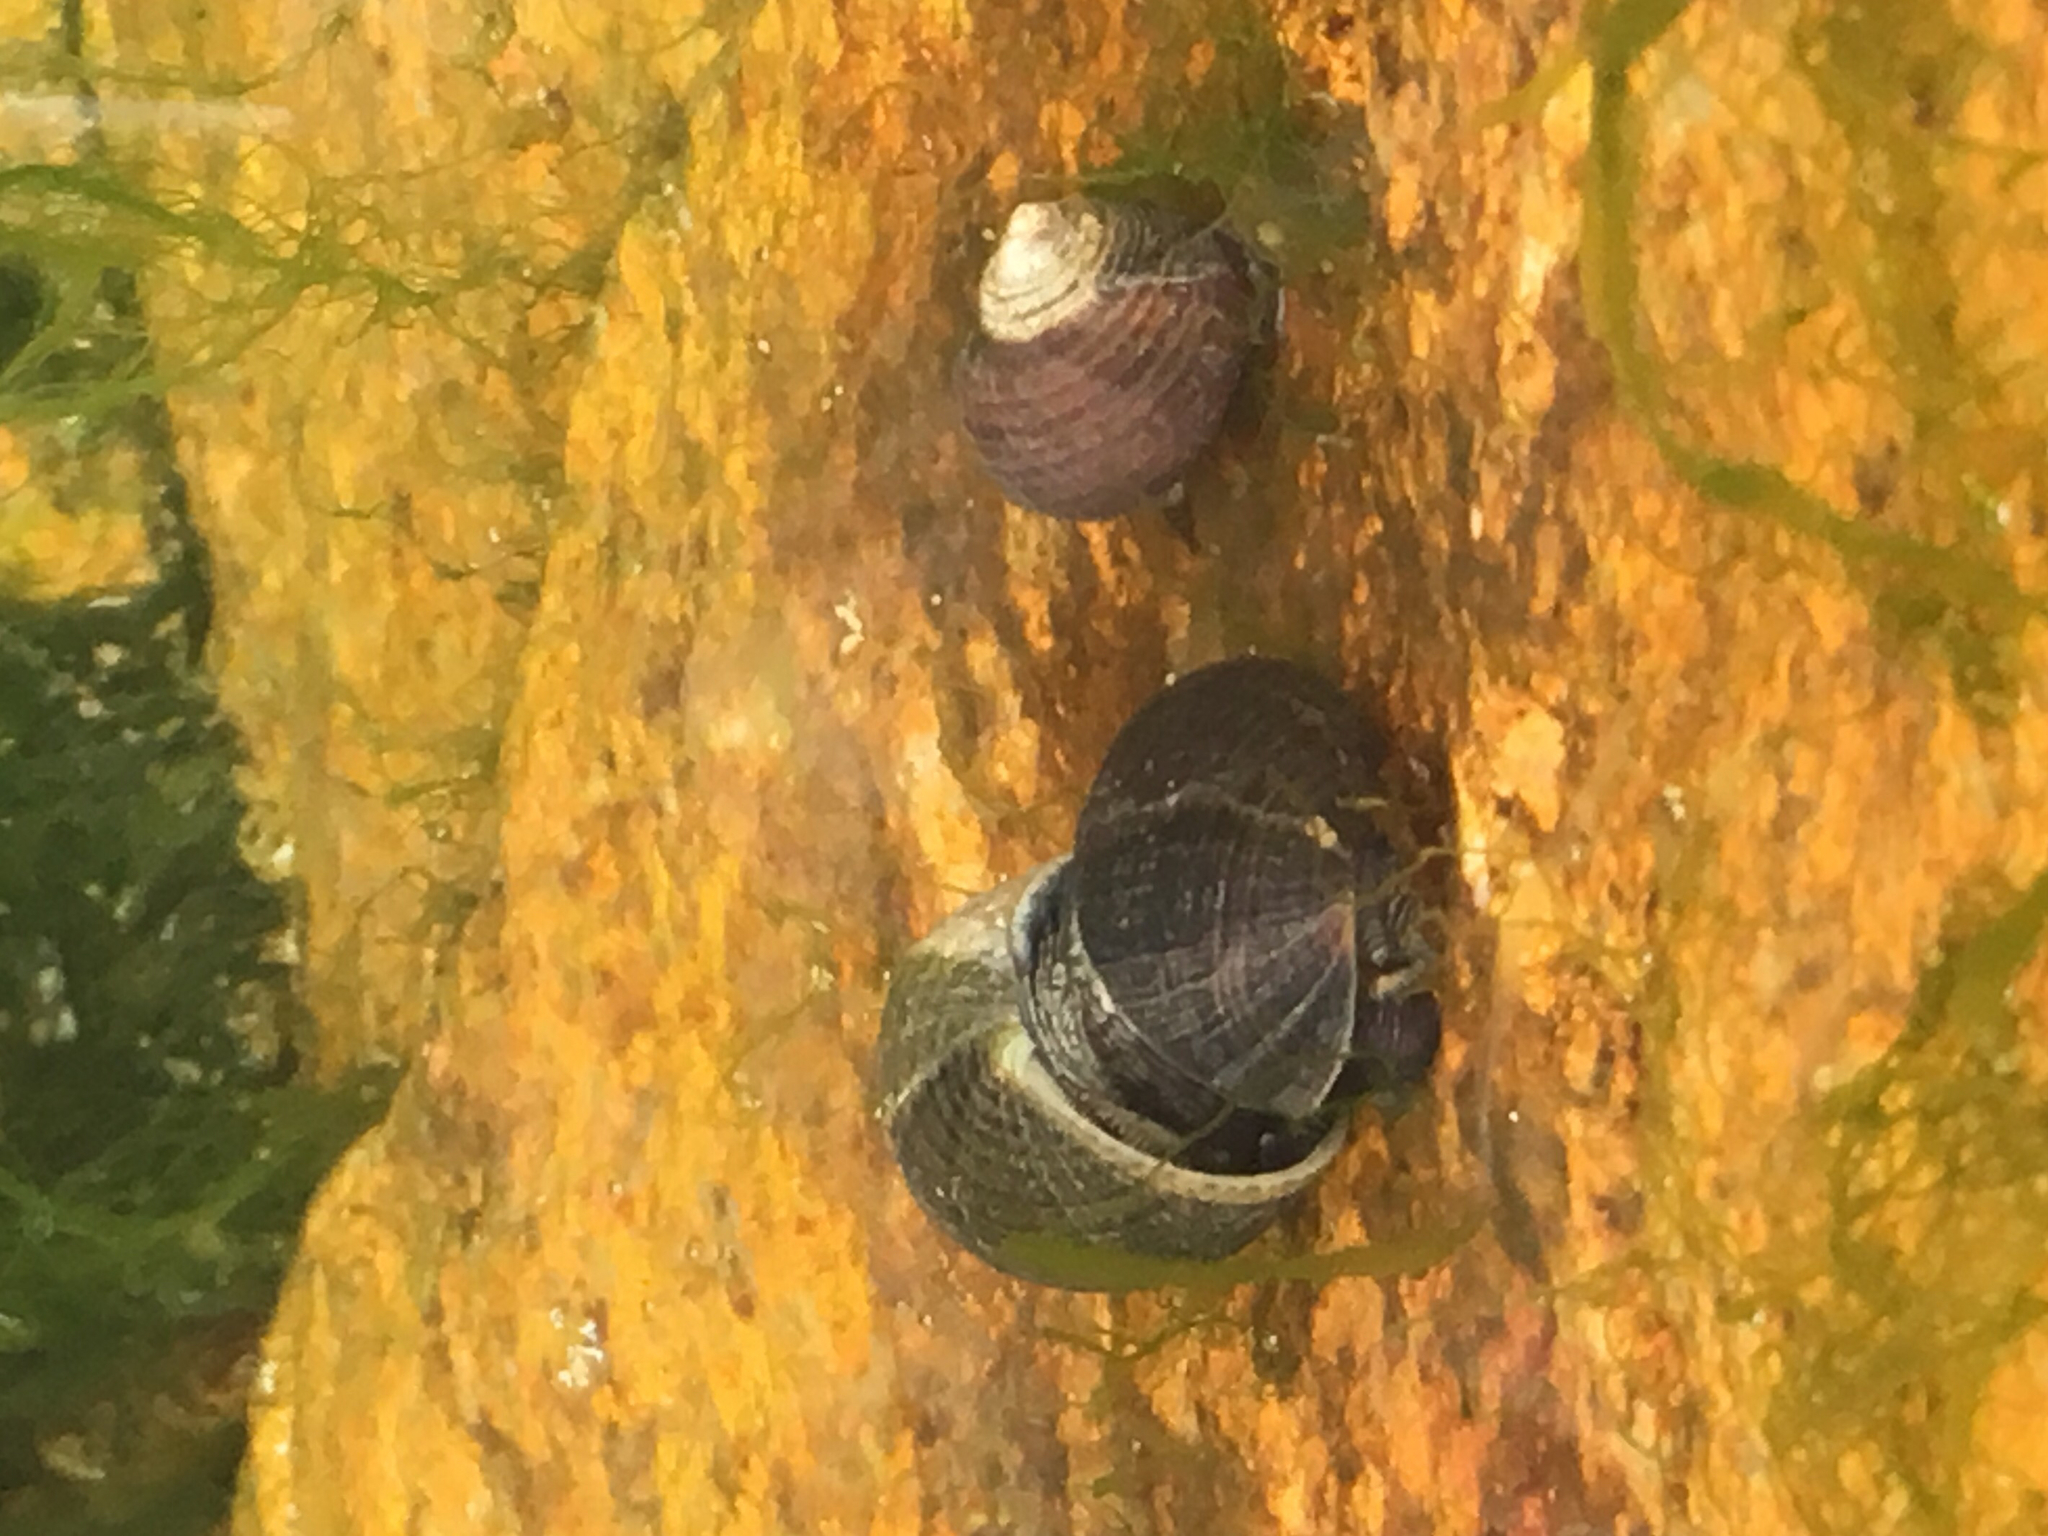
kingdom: Animalia
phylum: Mollusca
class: Gastropoda
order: Littorinimorpha
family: Littorinidae
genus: Littorina
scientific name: Littorina littorea
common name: Common periwinkle
